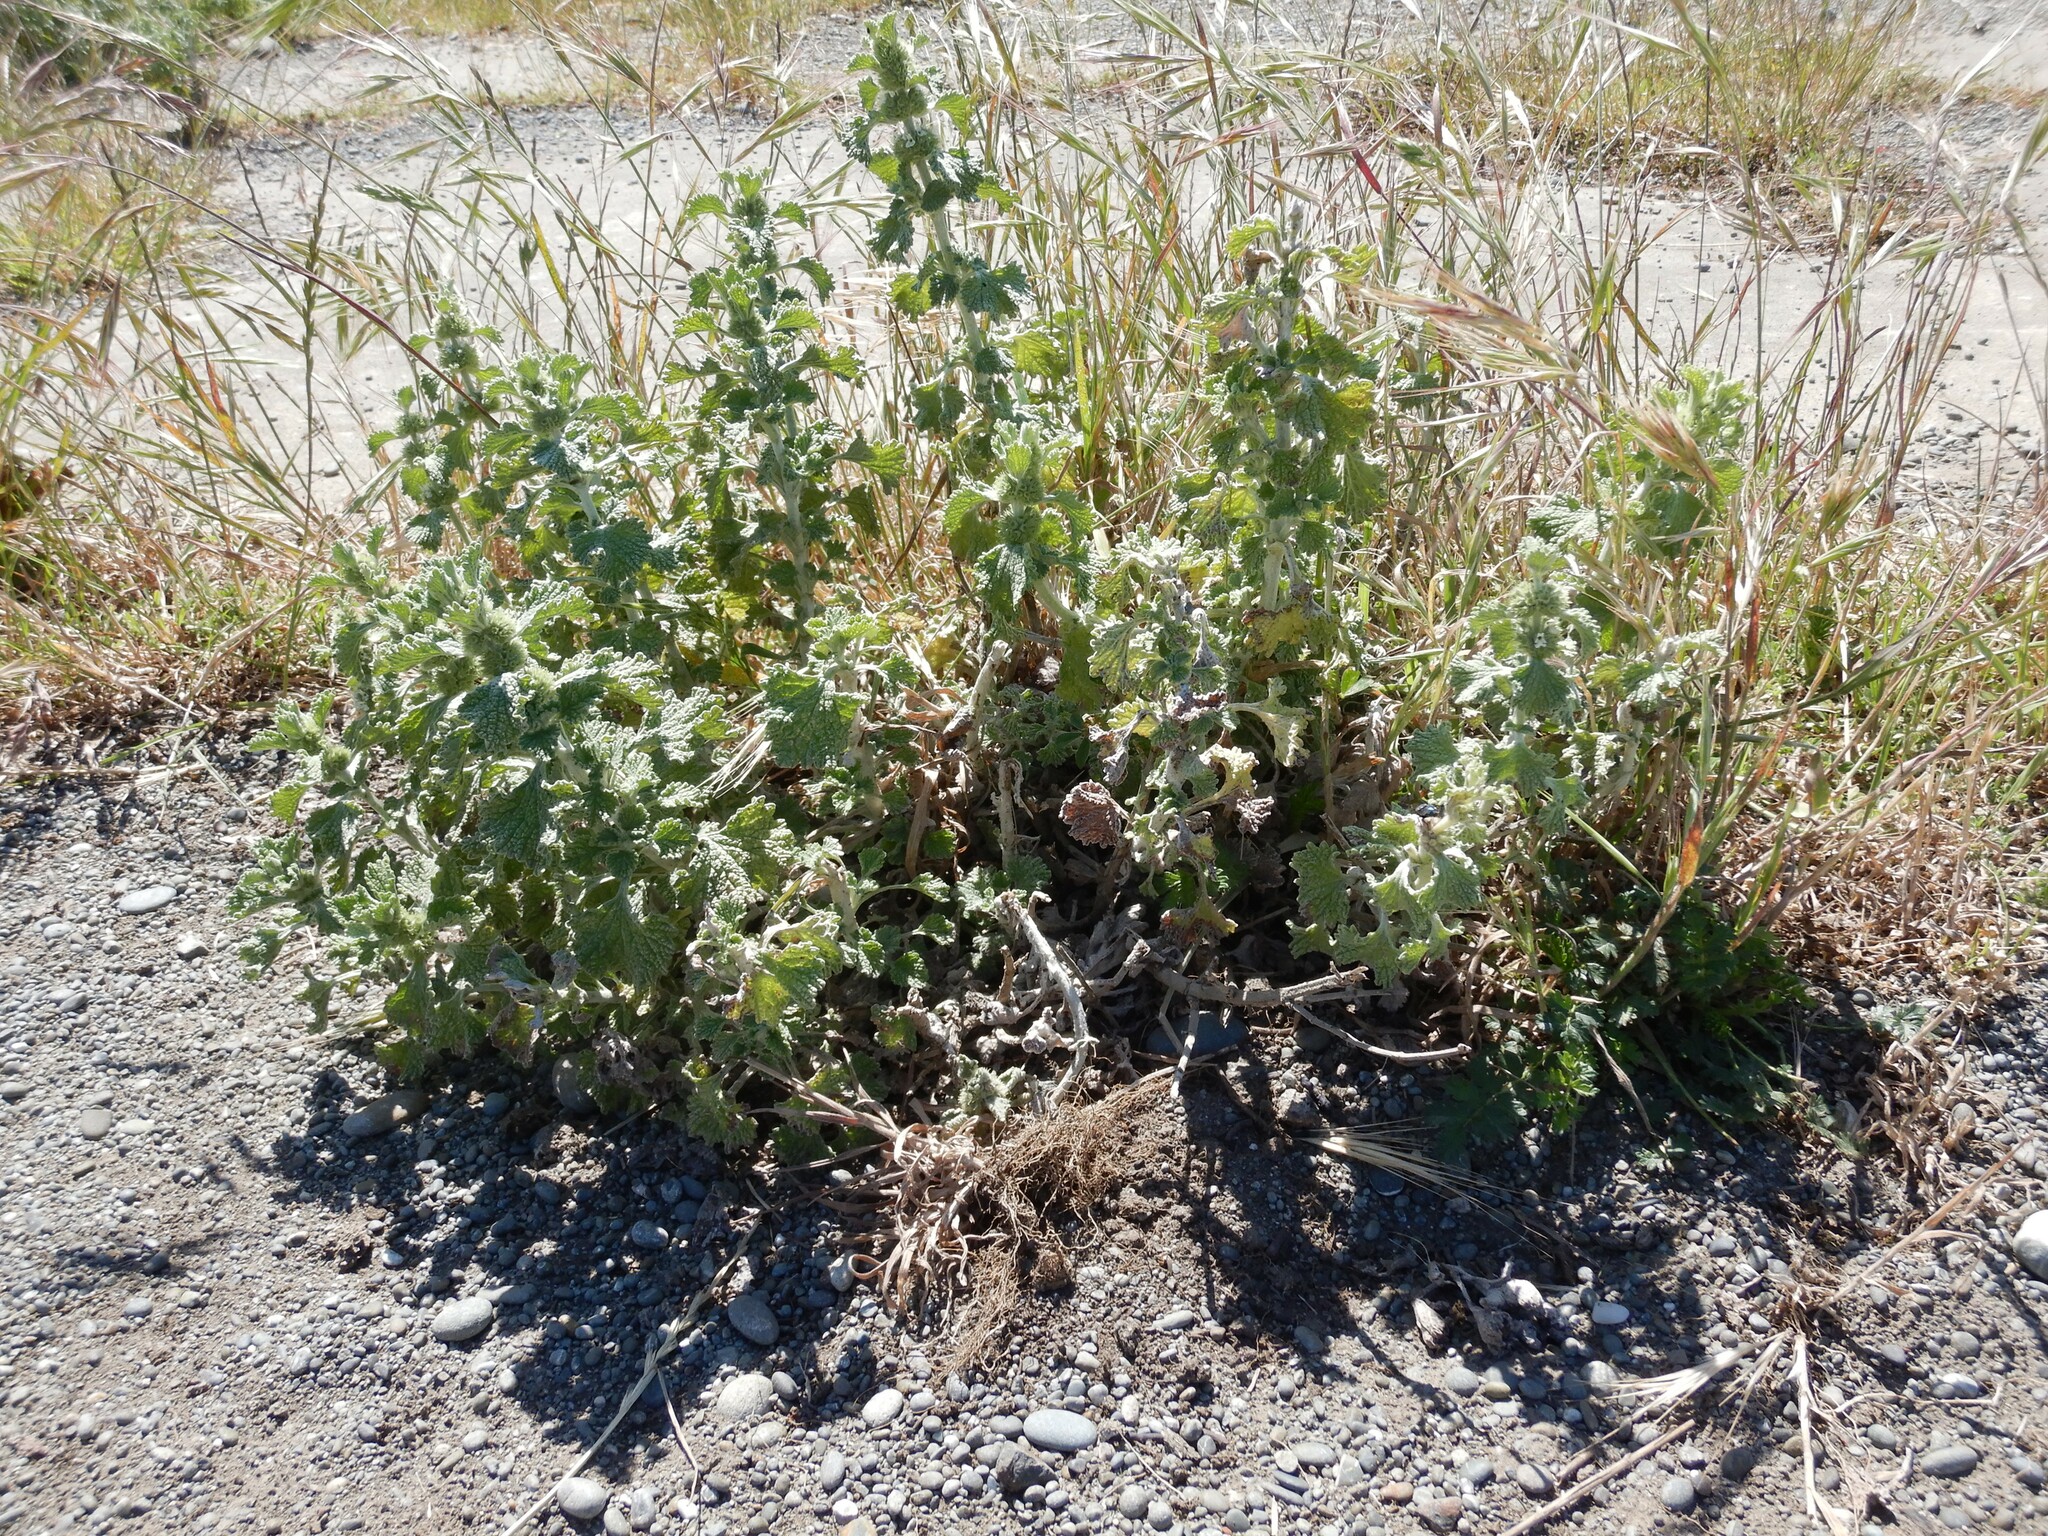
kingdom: Plantae
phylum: Tracheophyta
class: Magnoliopsida
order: Lamiales
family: Lamiaceae
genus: Marrubium
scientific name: Marrubium vulgare
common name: Horehound
